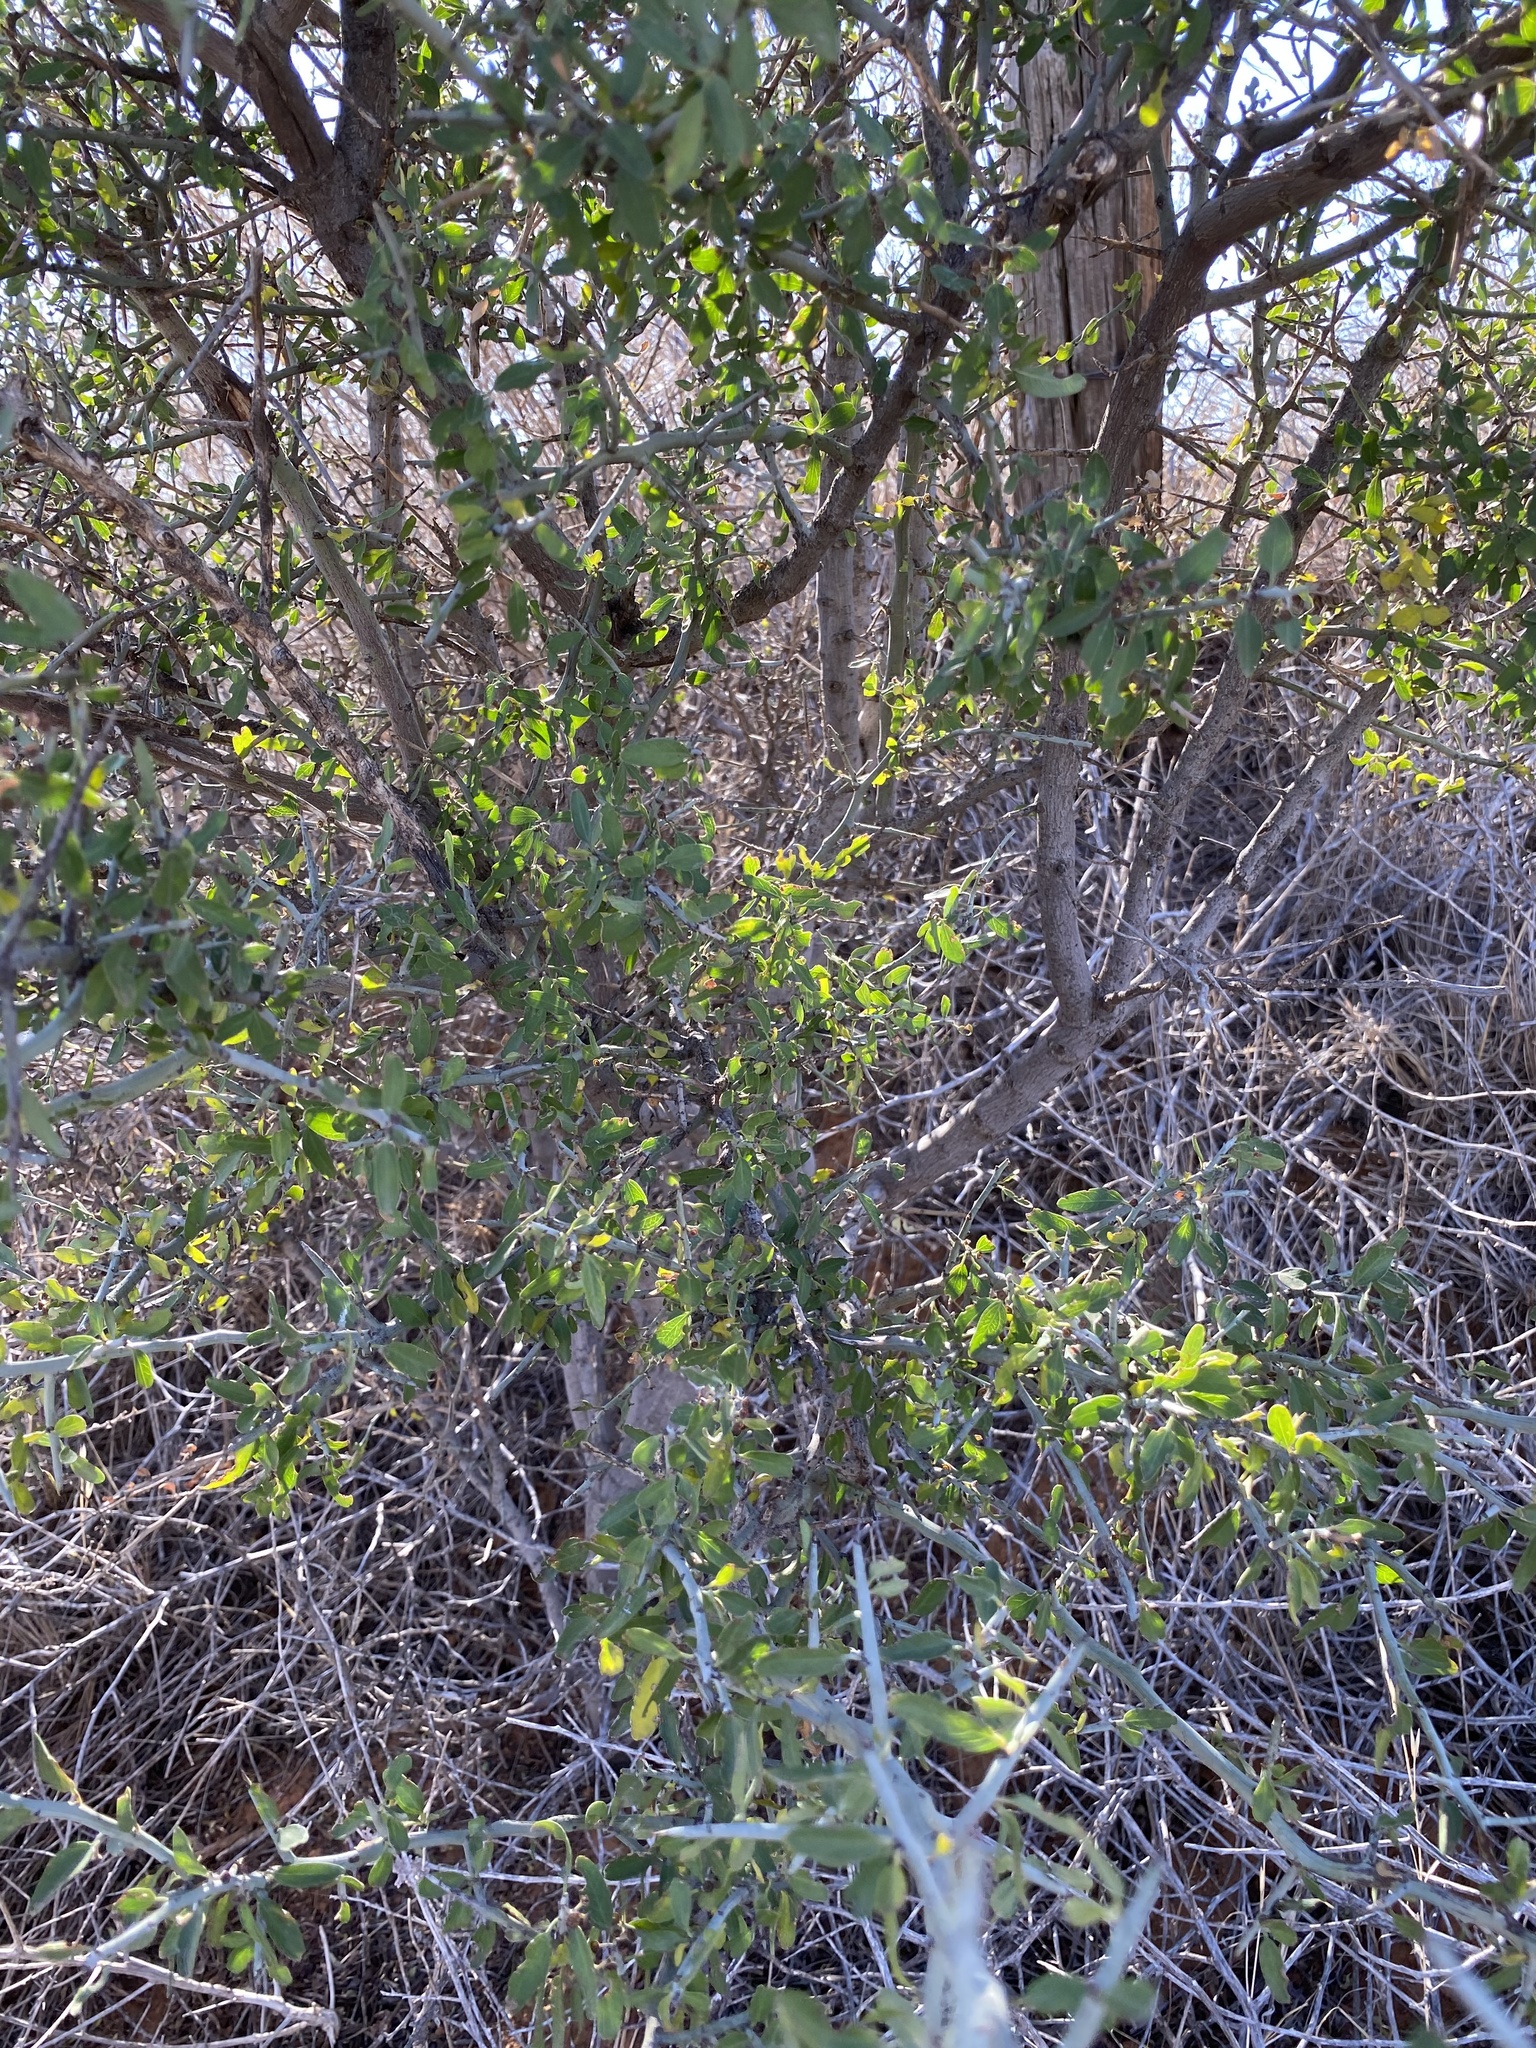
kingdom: Plantae
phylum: Tracheophyta
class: Magnoliopsida
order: Rosales
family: Rhamnaceae
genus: Sarcomphalus
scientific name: Sarcomphalus obtusifolius
